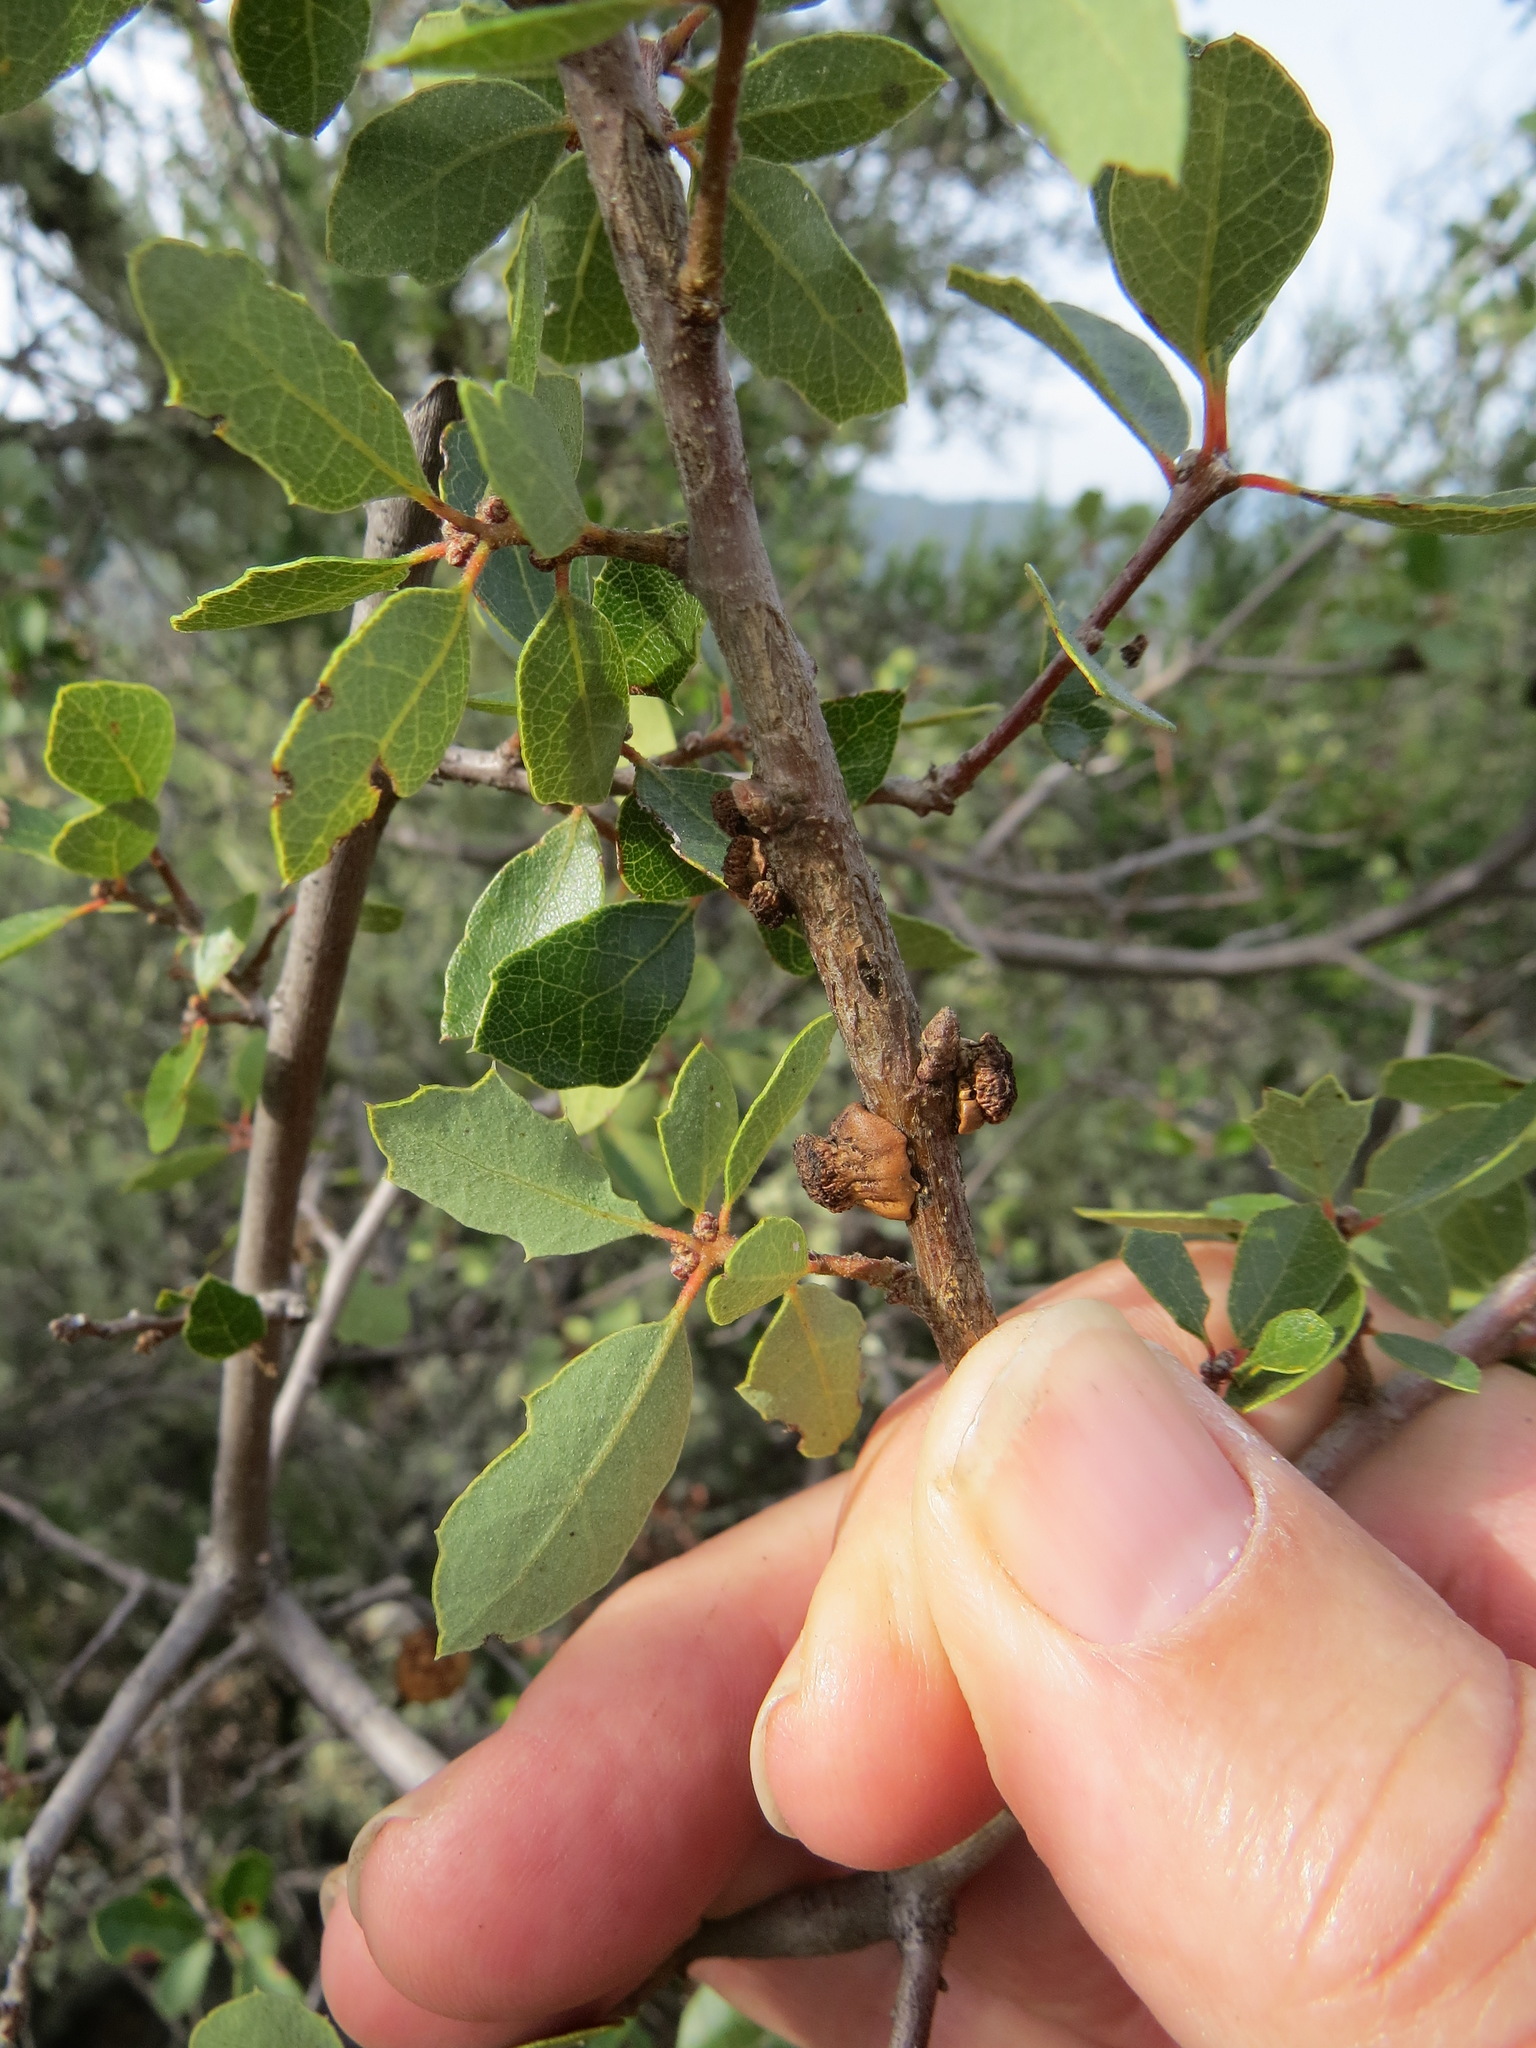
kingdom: Animalia
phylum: Arthropoda
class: Insecta
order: Hymenoptera
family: Cynipidae
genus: Disholcaspis
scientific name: Disholcaspis prehensa
